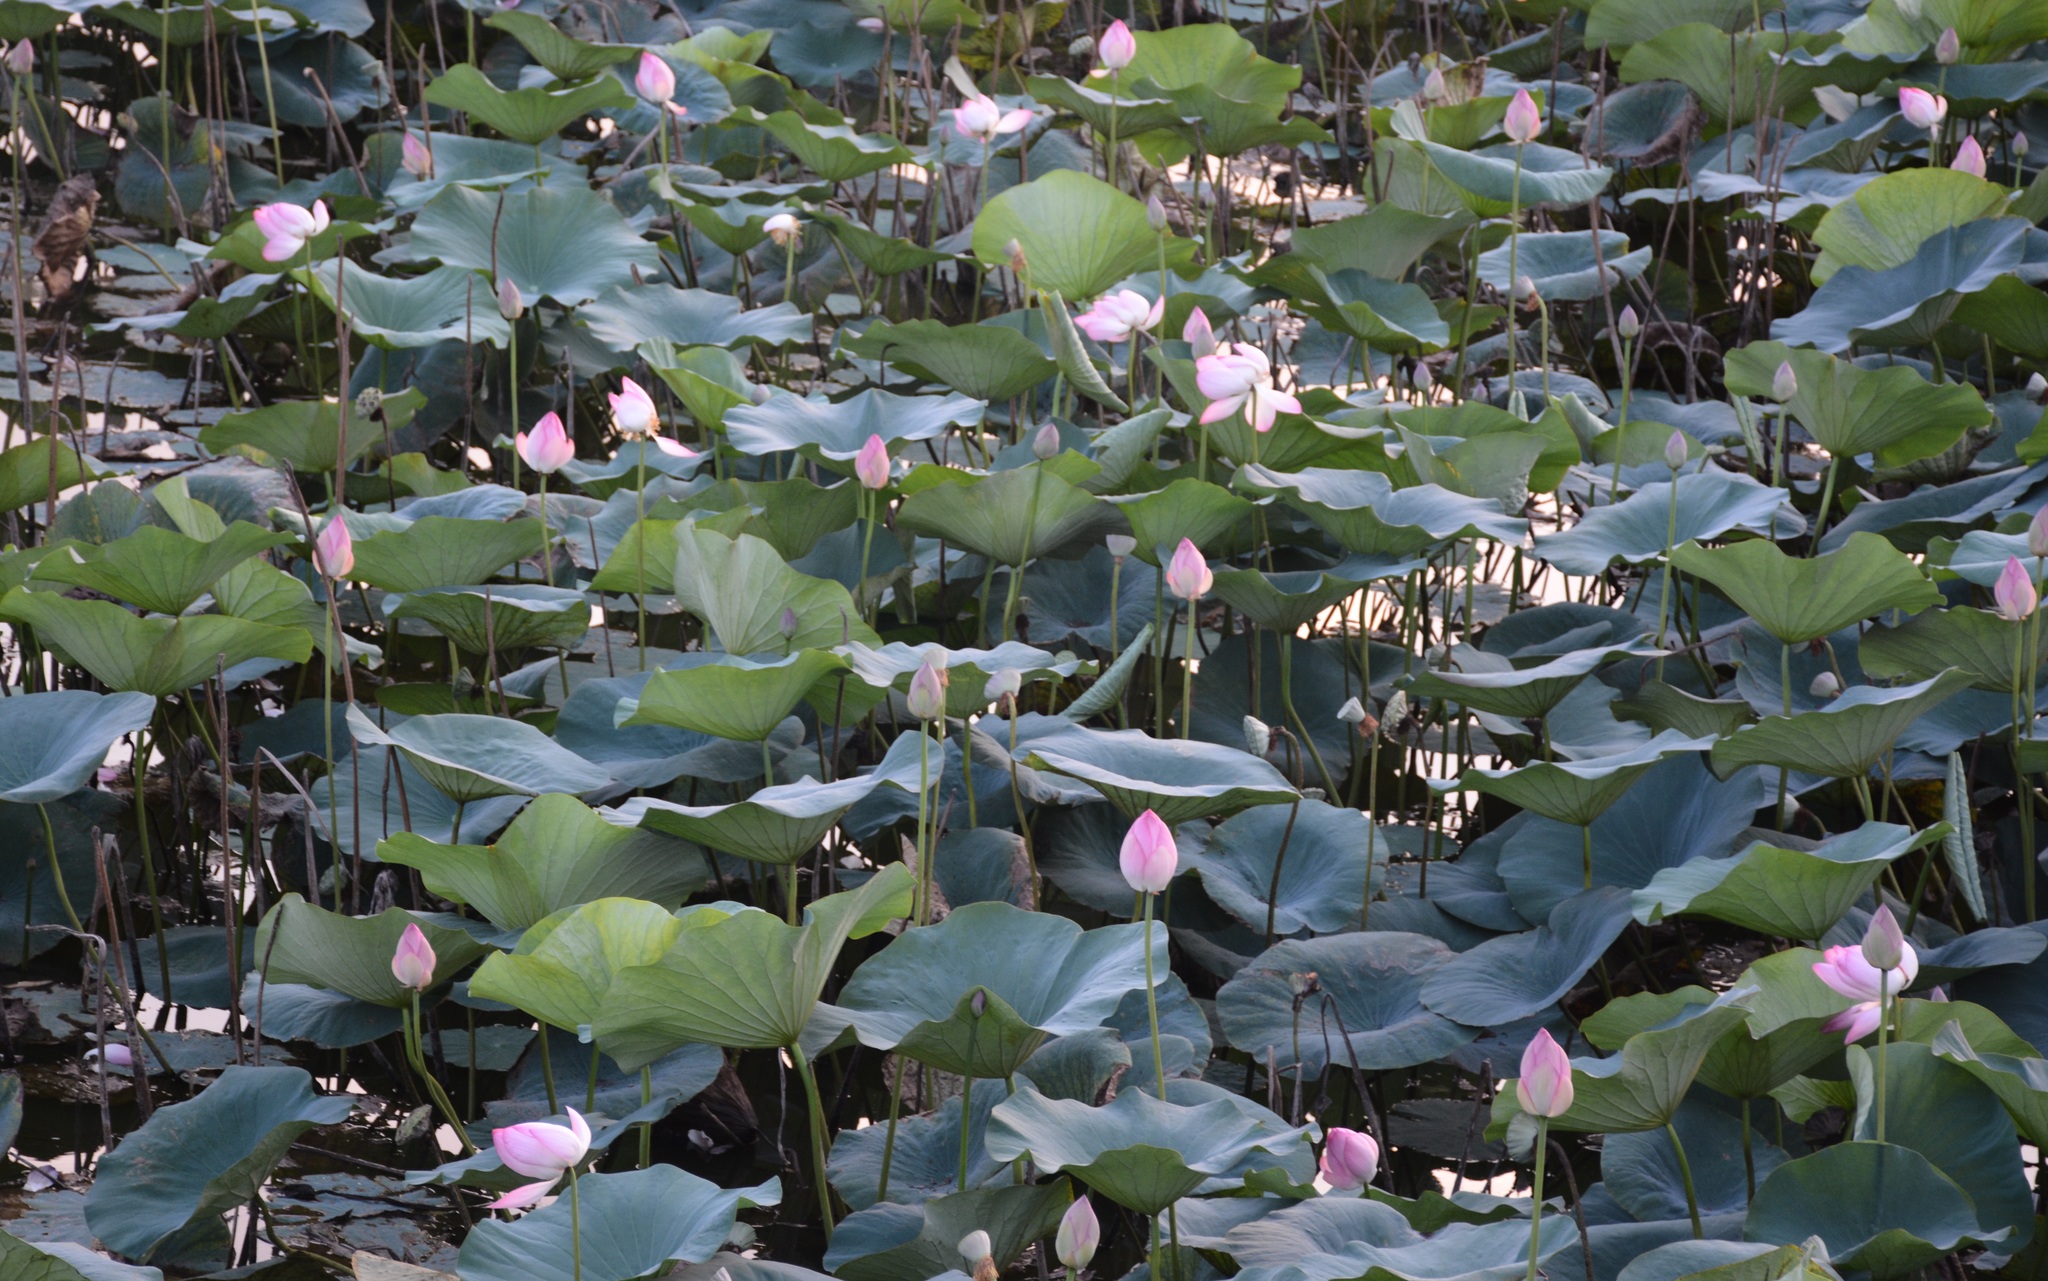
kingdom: Plantae
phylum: Tracheophyta
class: Magnoliopsida
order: Proteales
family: Nelumbonaceae
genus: Nelumbo
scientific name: Nelumbo nucifera
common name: Sacred lotus
